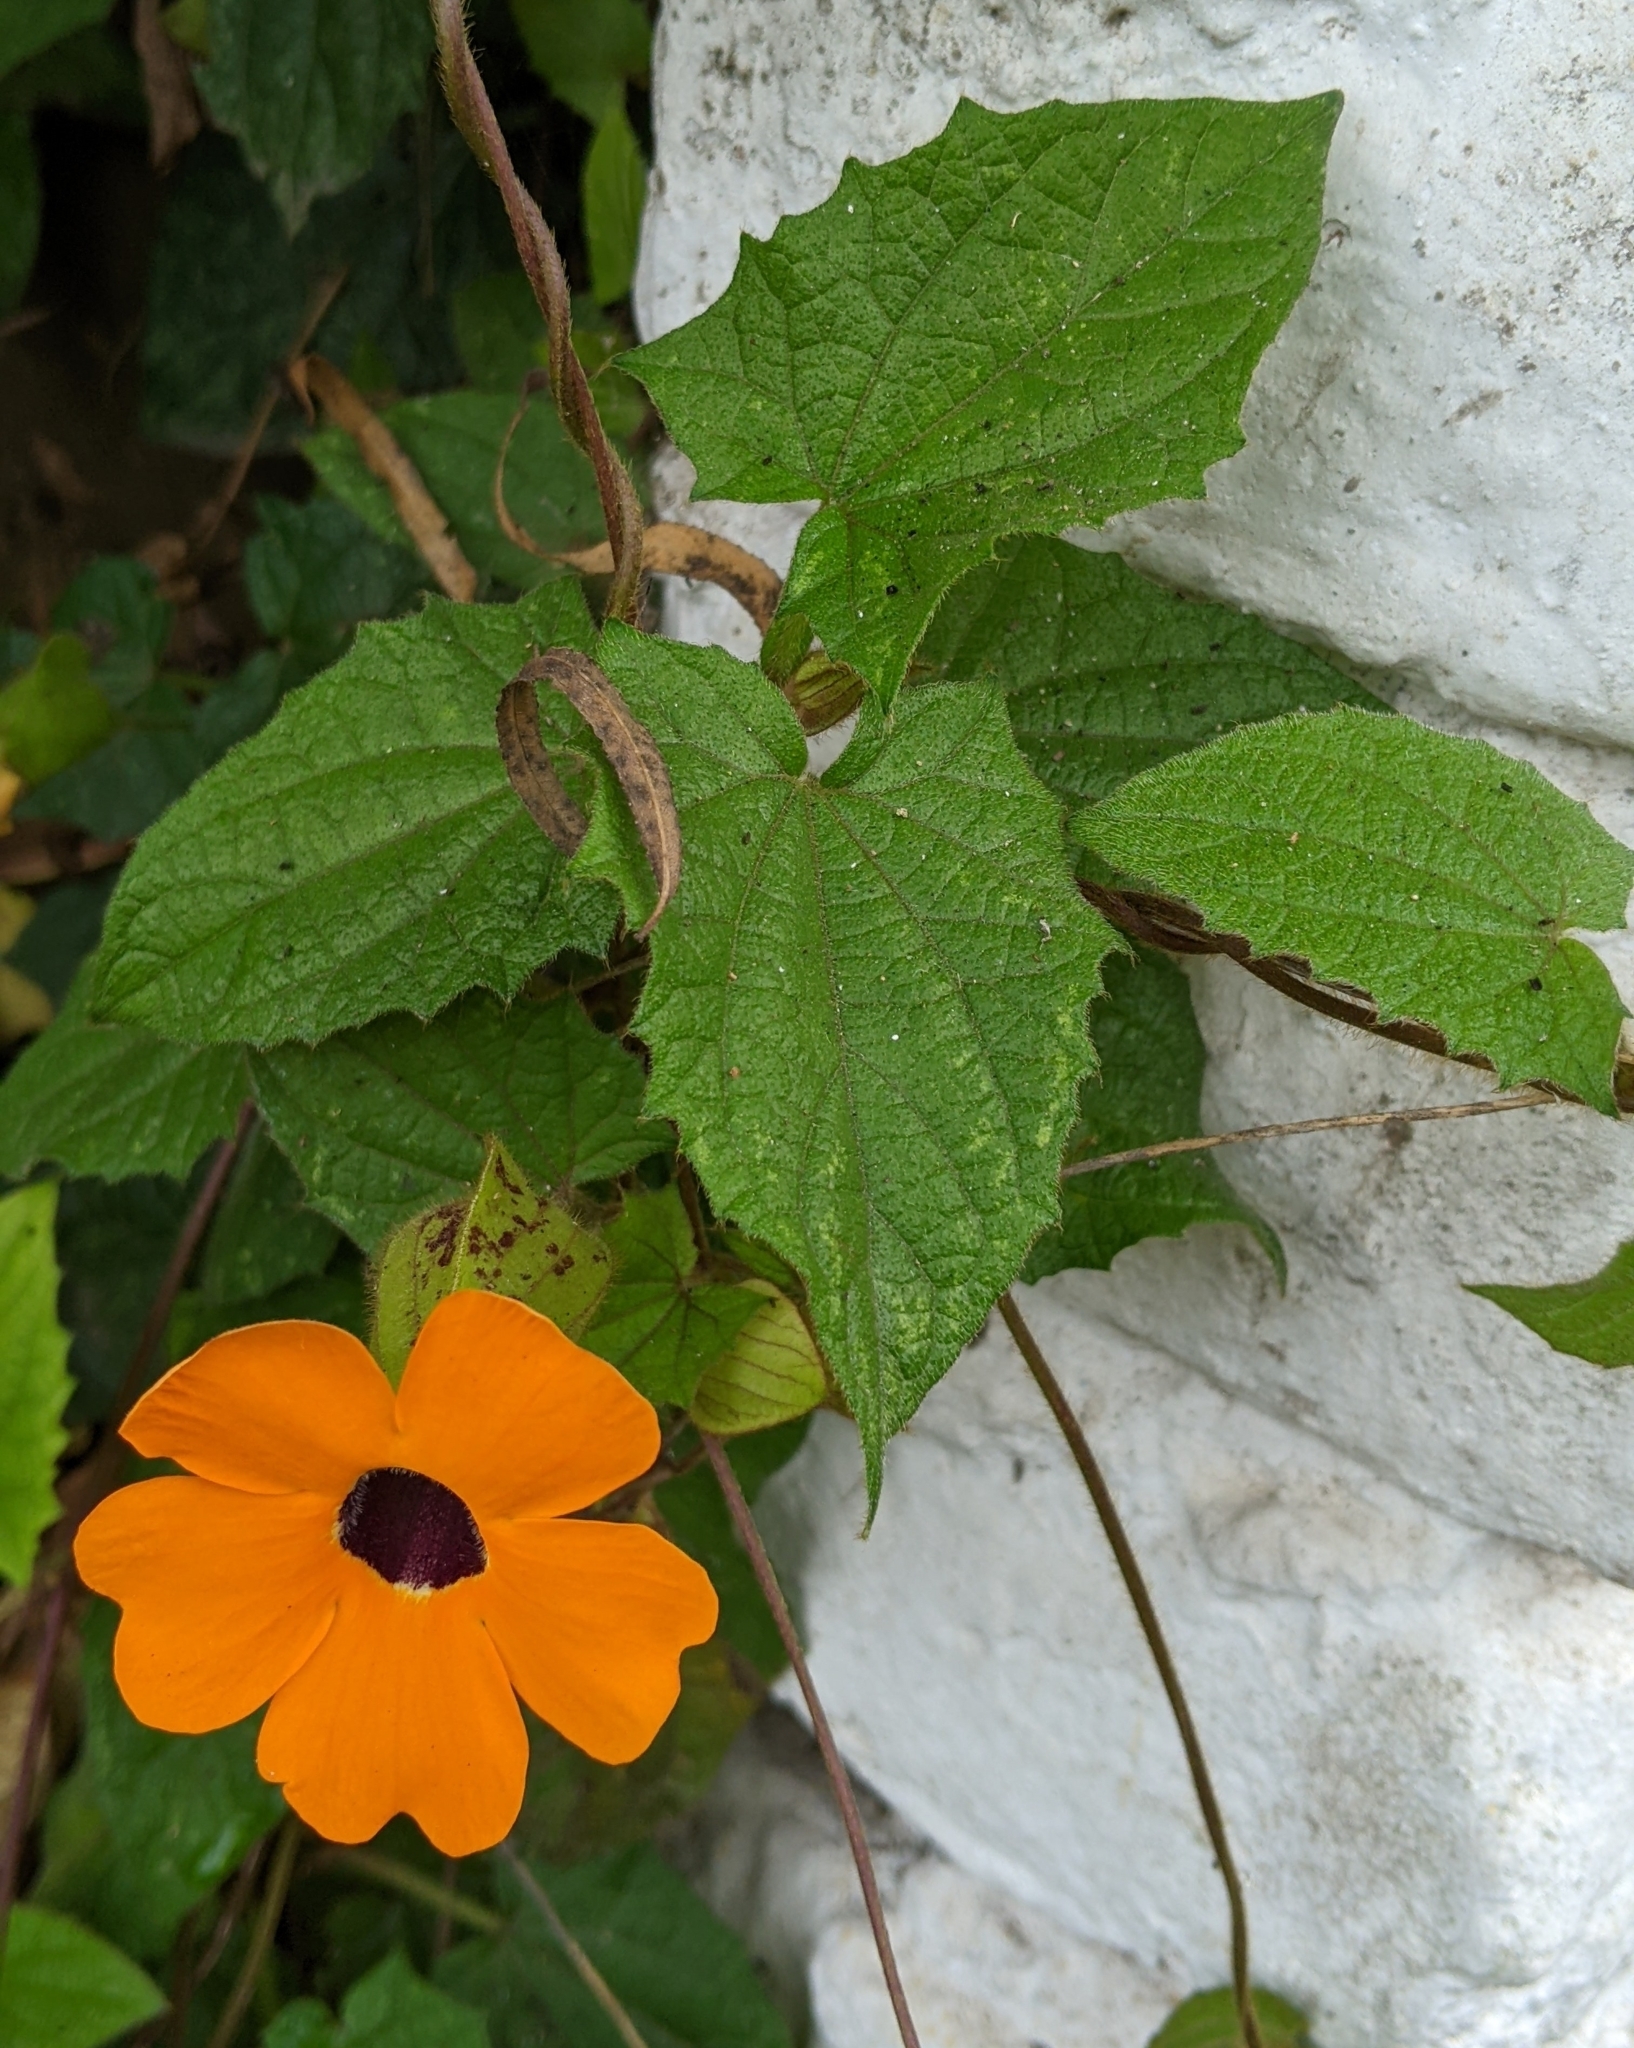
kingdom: Plantae
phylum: Tracheophyta
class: Magnoliopsida
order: Lamiales
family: Acanthaceae
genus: Thunbergia
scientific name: Thunbergia alata
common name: Blackeyed susan vine
